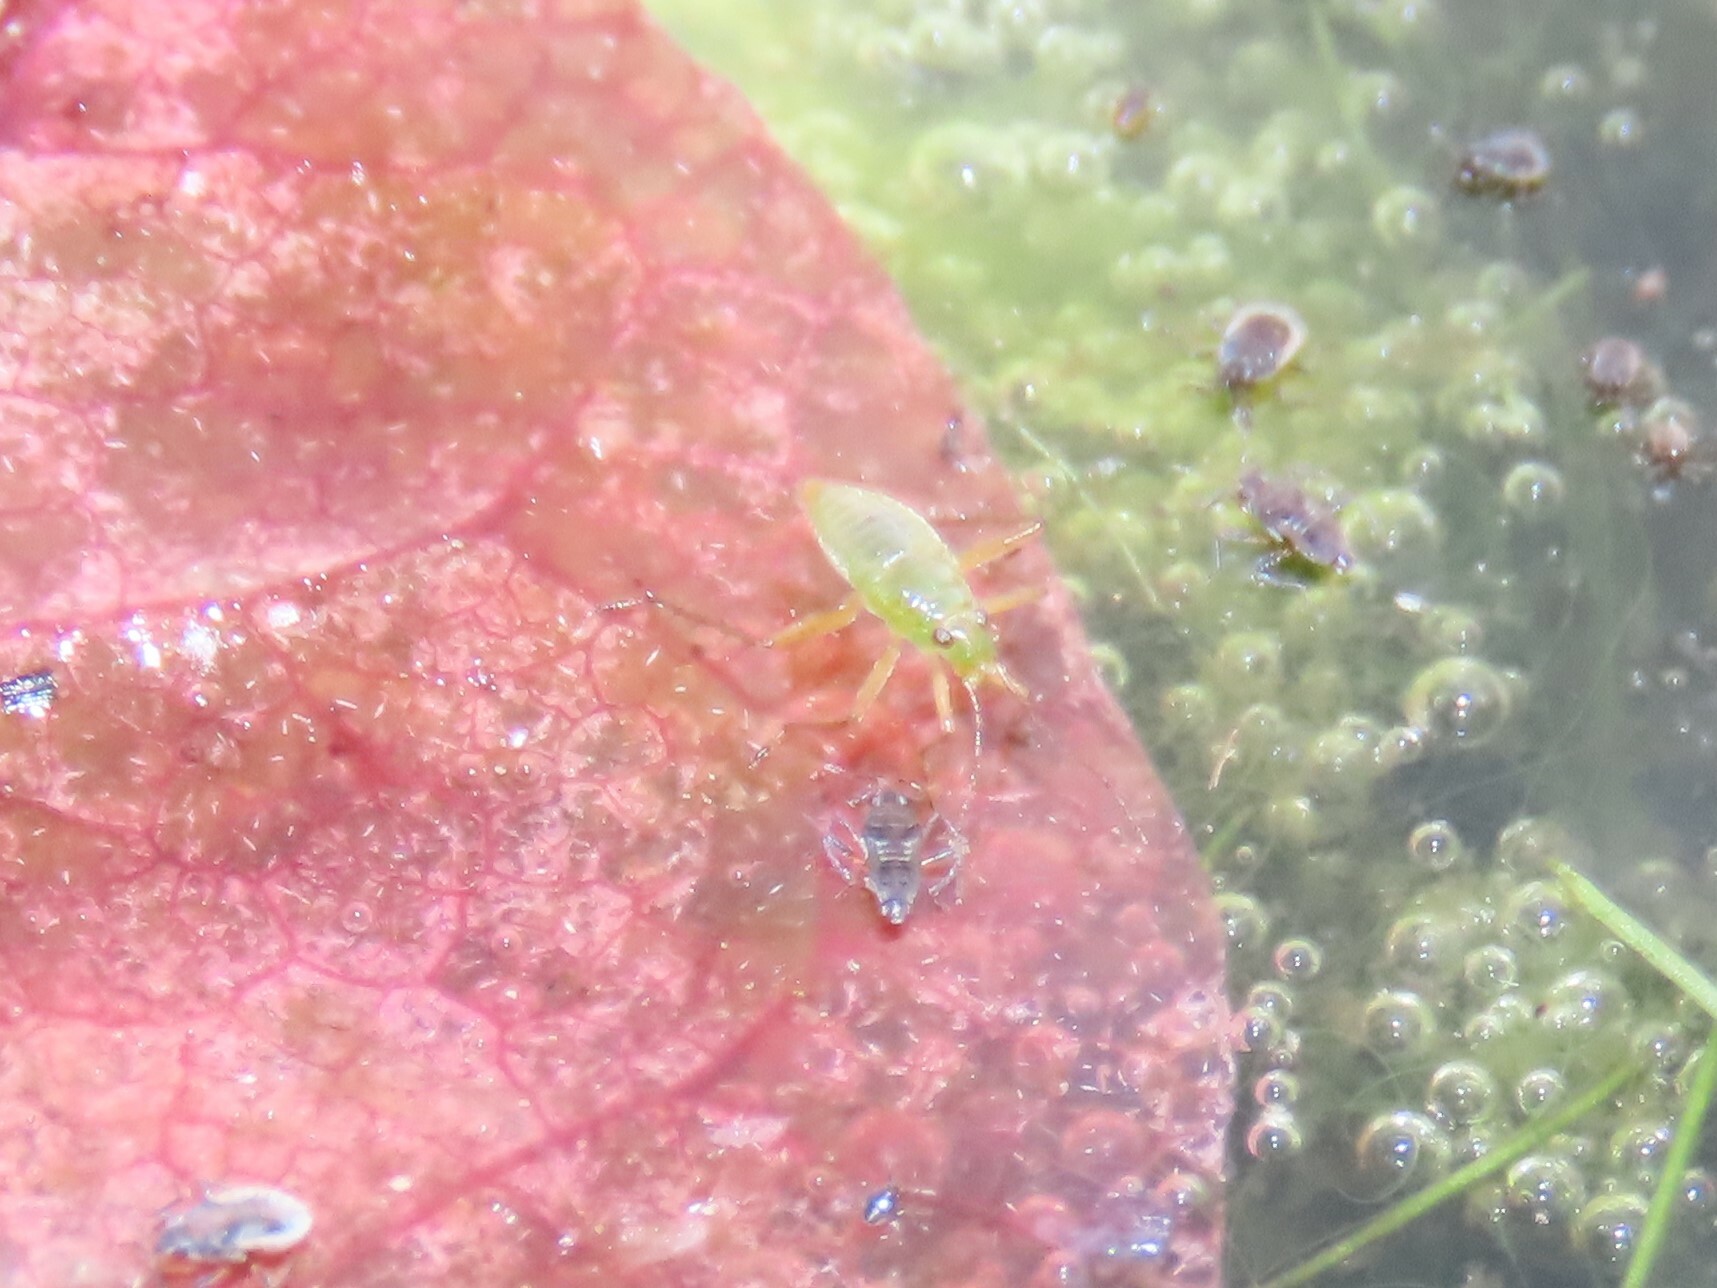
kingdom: Animalia
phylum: Arthropoda
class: Insecta
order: Hemiptera
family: Mesoveliidae
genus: Mesovelia
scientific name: Mesovelia
